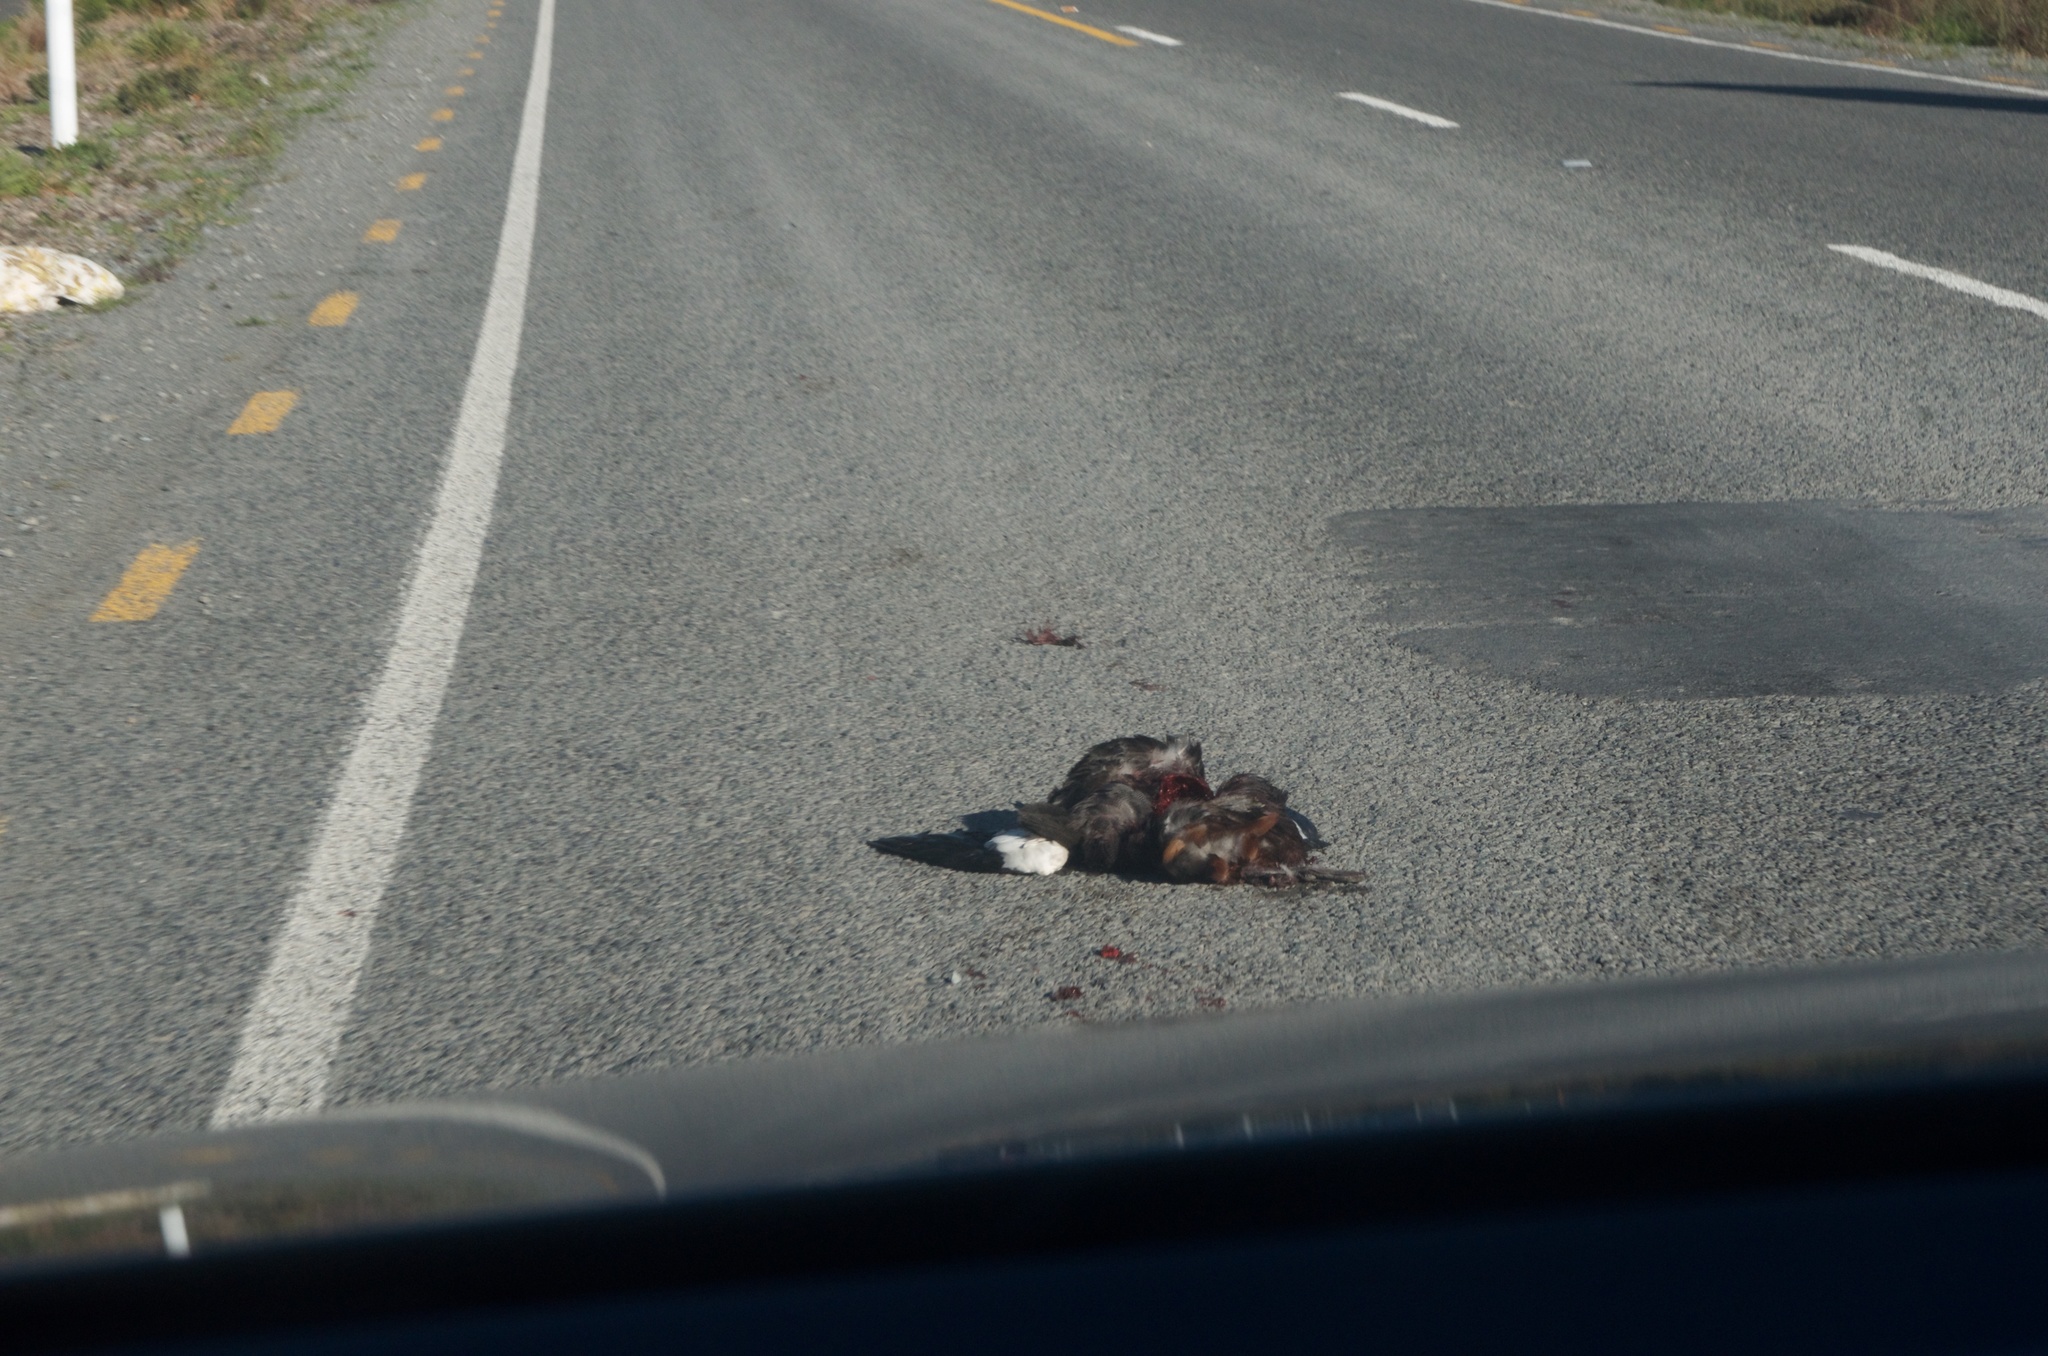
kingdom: Animalia
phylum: Chordata
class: Aves
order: Anseriformes
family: Anatidae
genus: Tadorna
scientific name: Tadorna variegata
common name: Paradise shelduck
